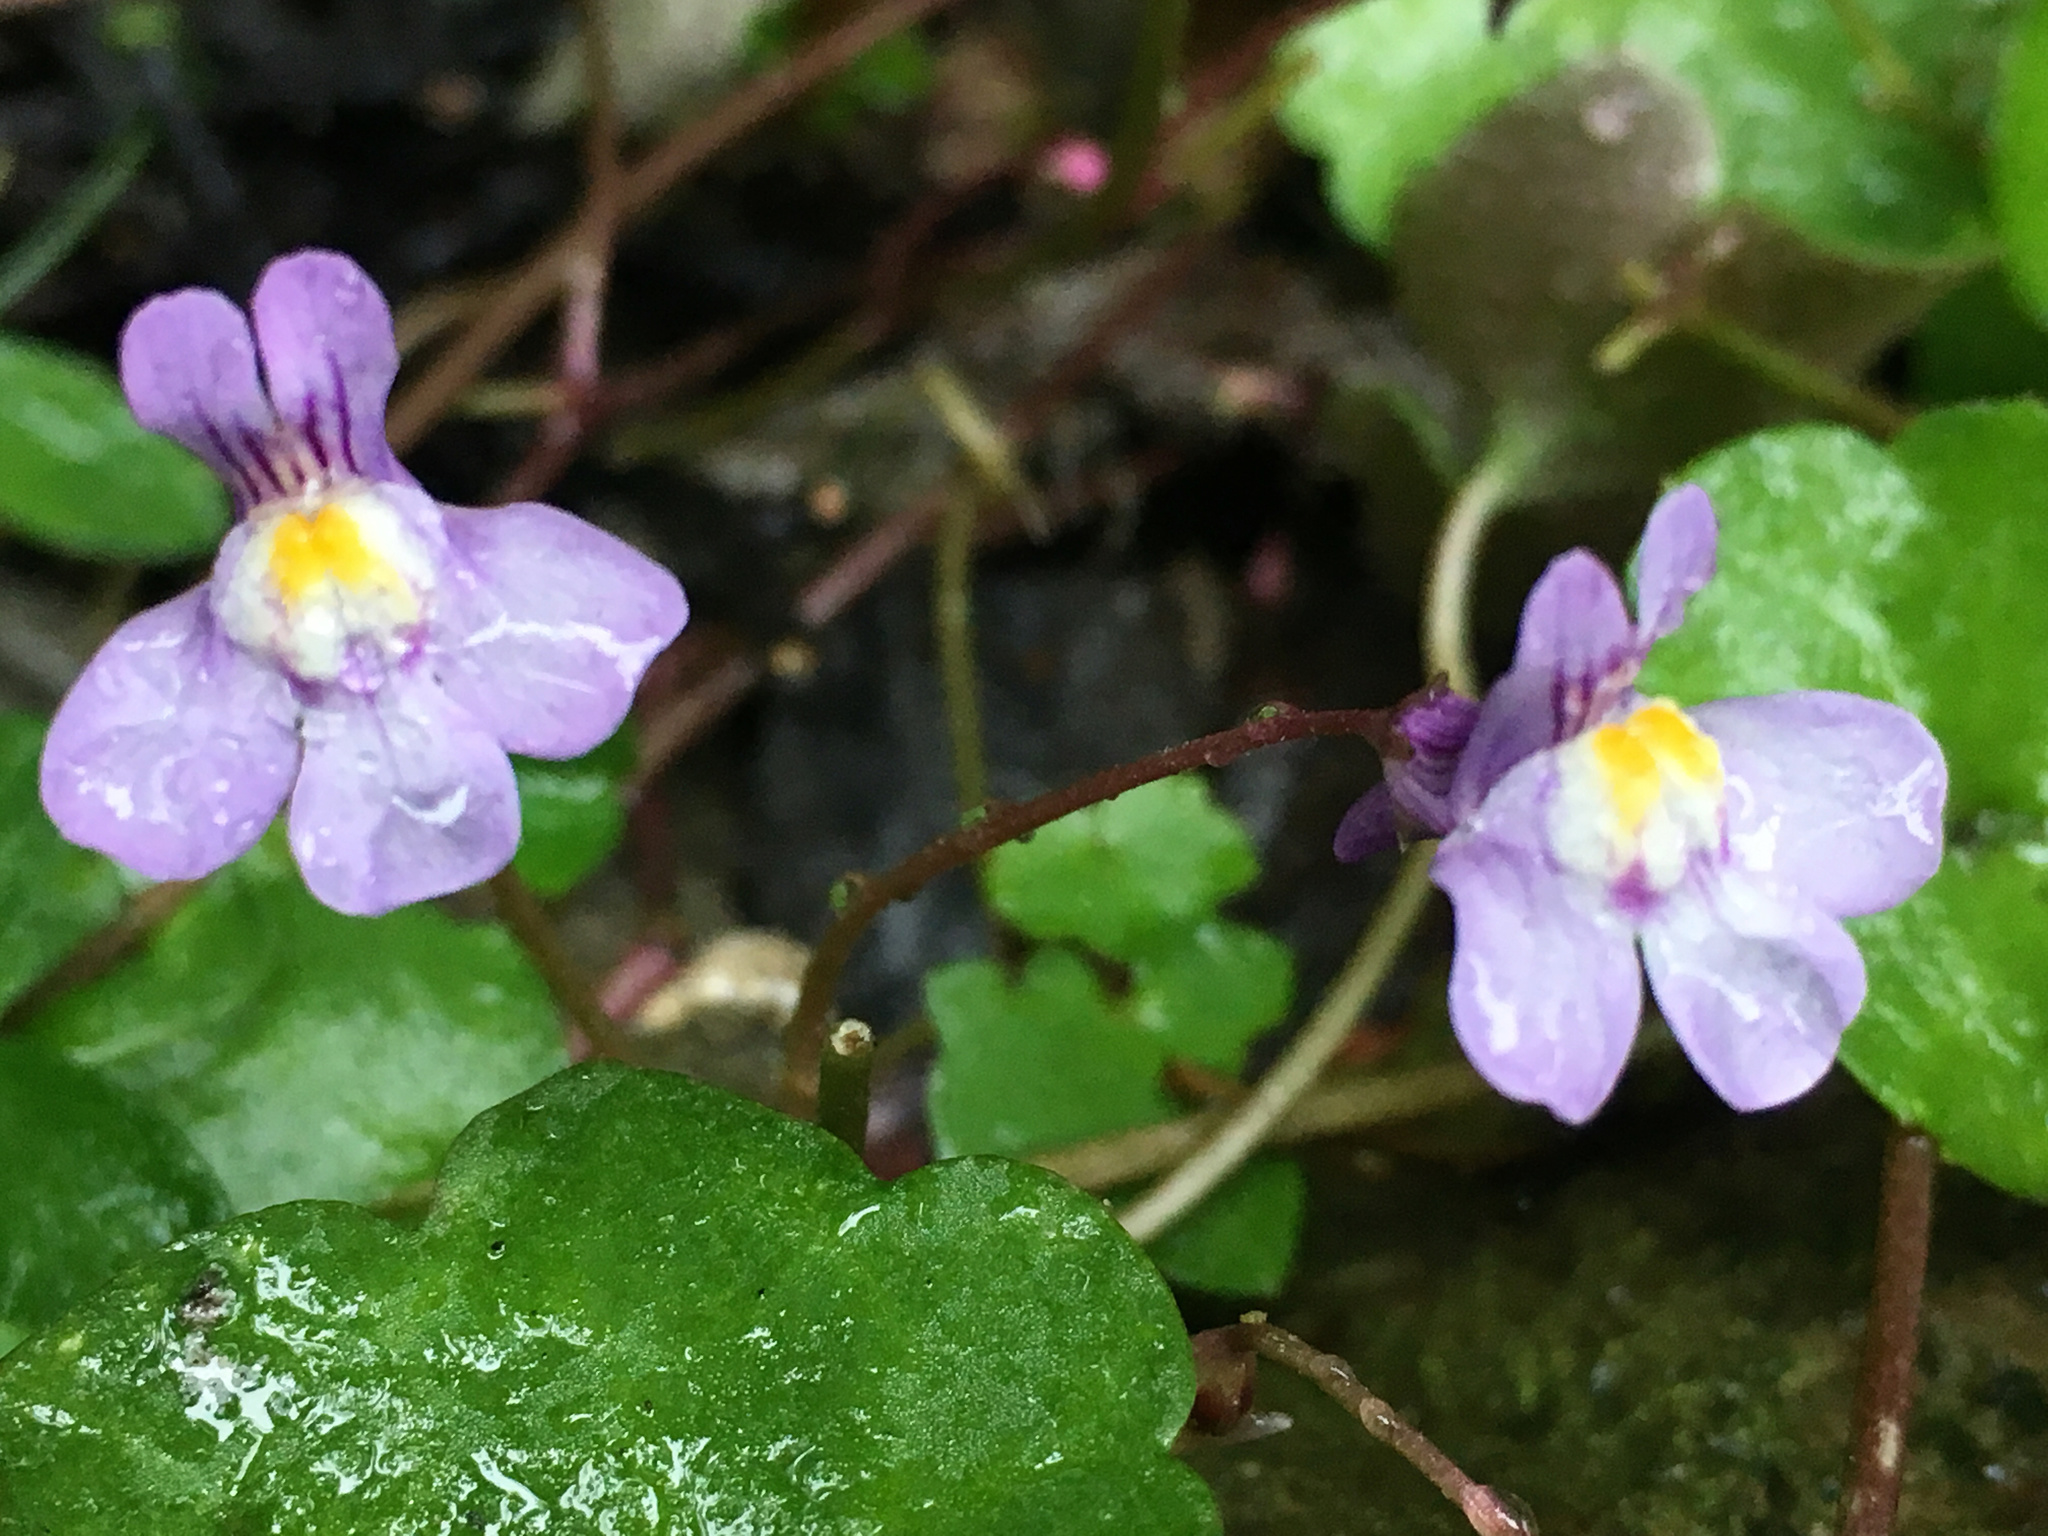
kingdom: Plantae
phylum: Tracheophyta
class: Magnoliopsida
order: Lamiales
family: Plantaginaceae
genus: Cymbalaria
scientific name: Cymbalaria muralis
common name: Ivy-leaved toadflax
